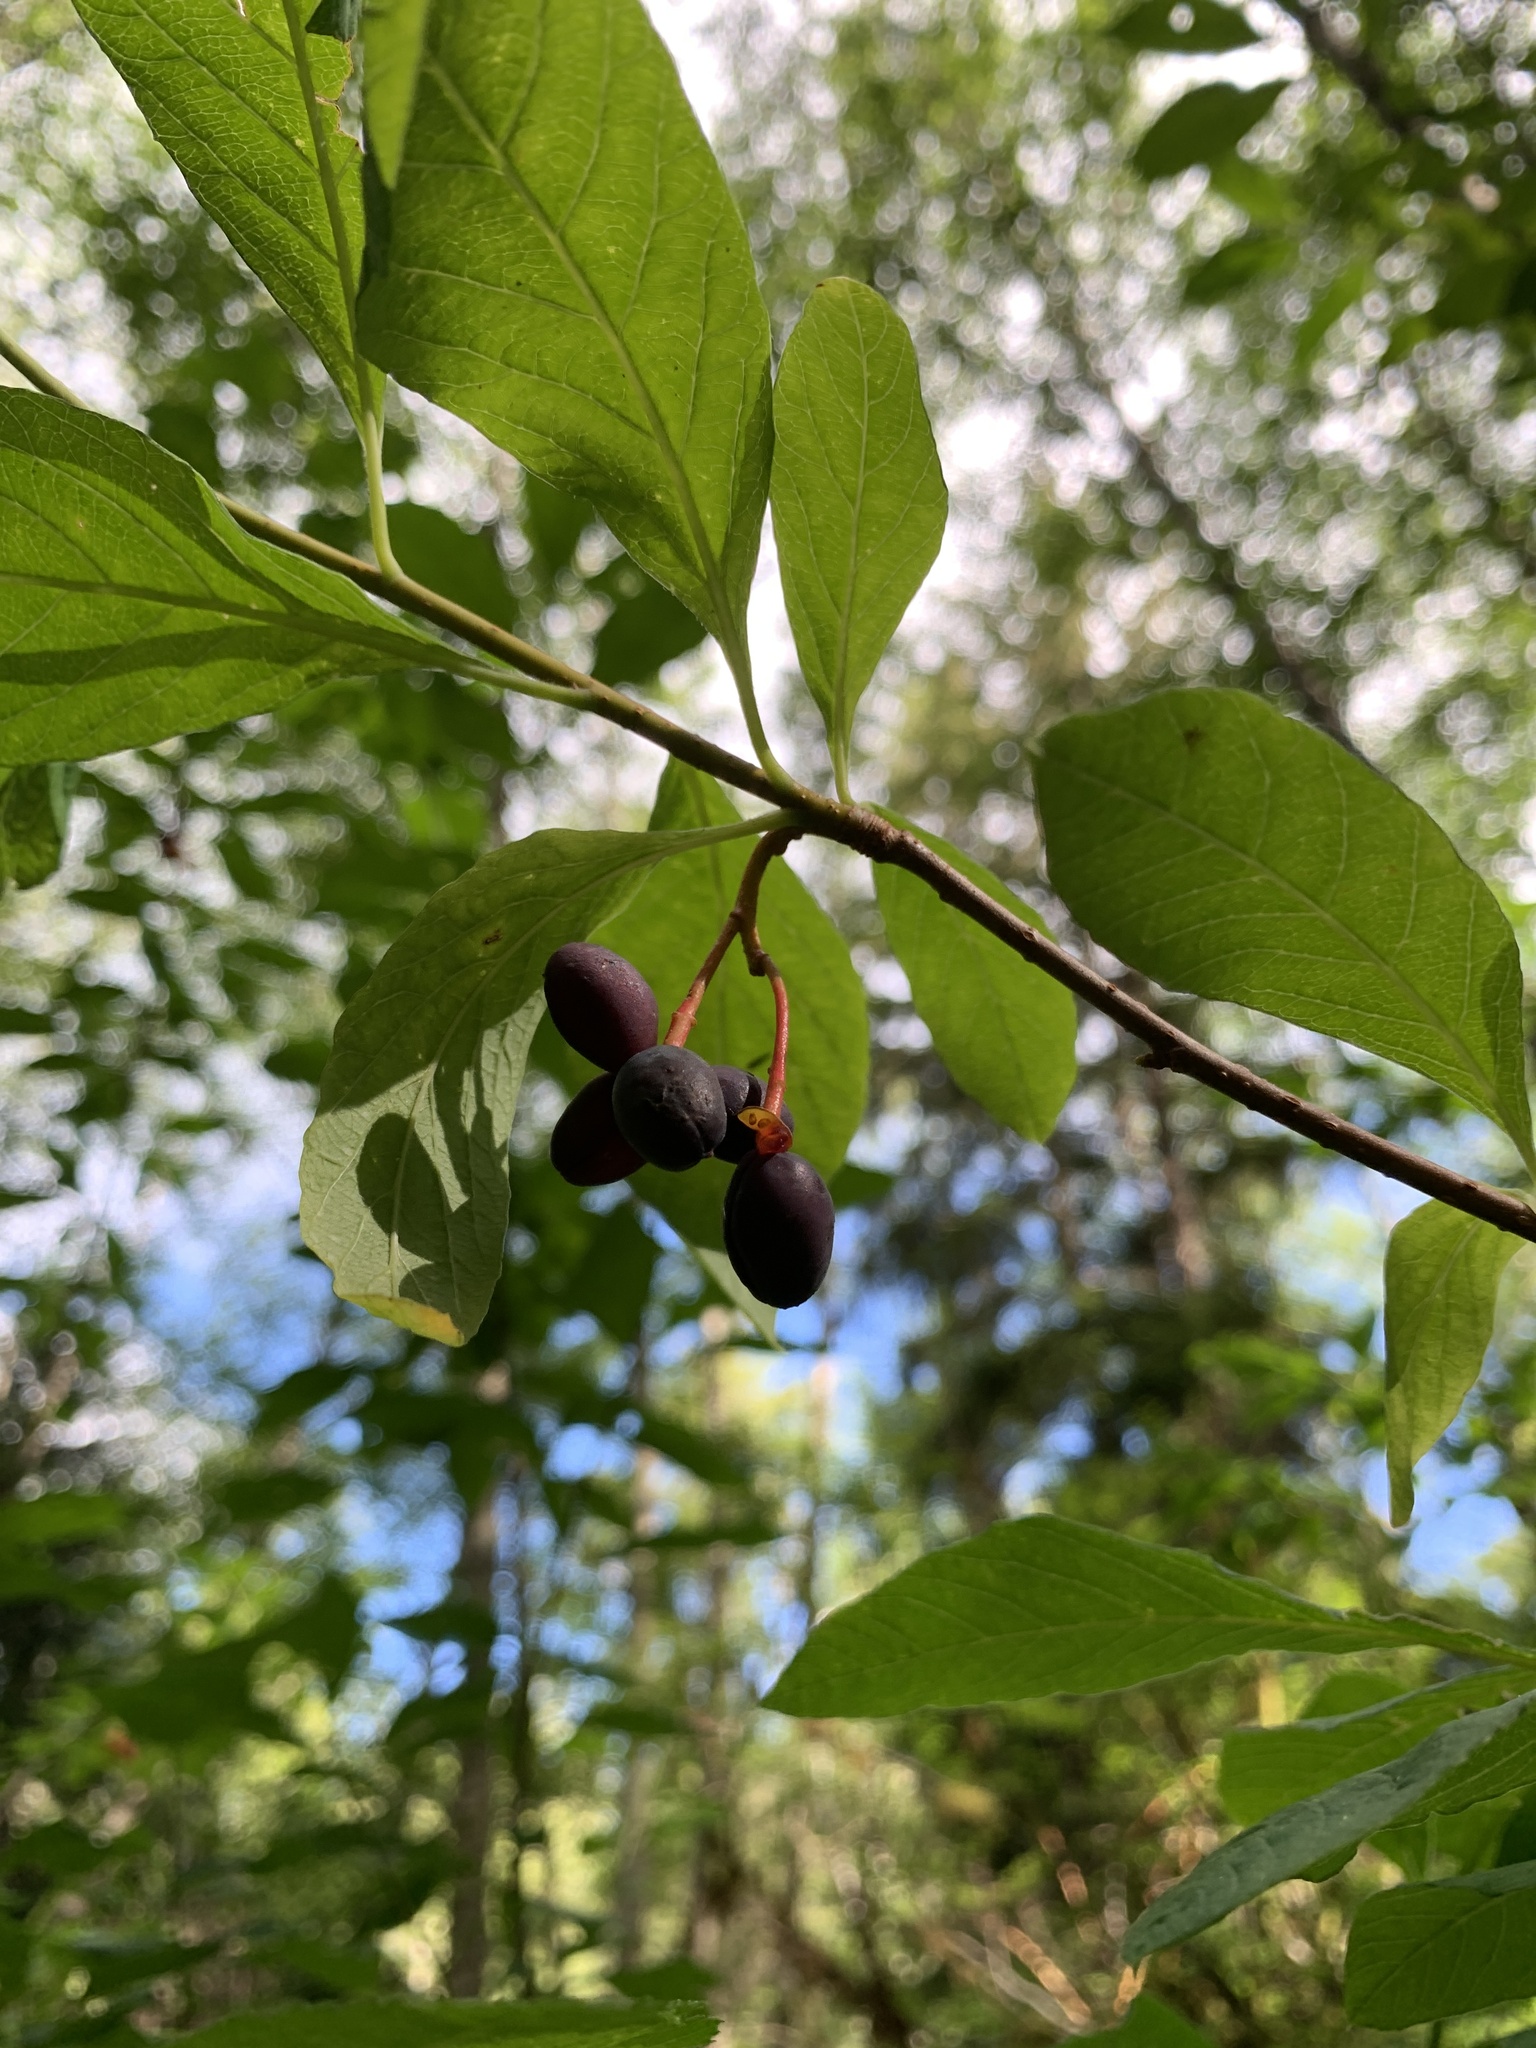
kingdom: Plantae
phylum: Tracheophyta
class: Magnoliopsida
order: Rosales
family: Rosaceae
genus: Oemleria
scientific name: Oemleria cerasiformis
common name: Osoberry
